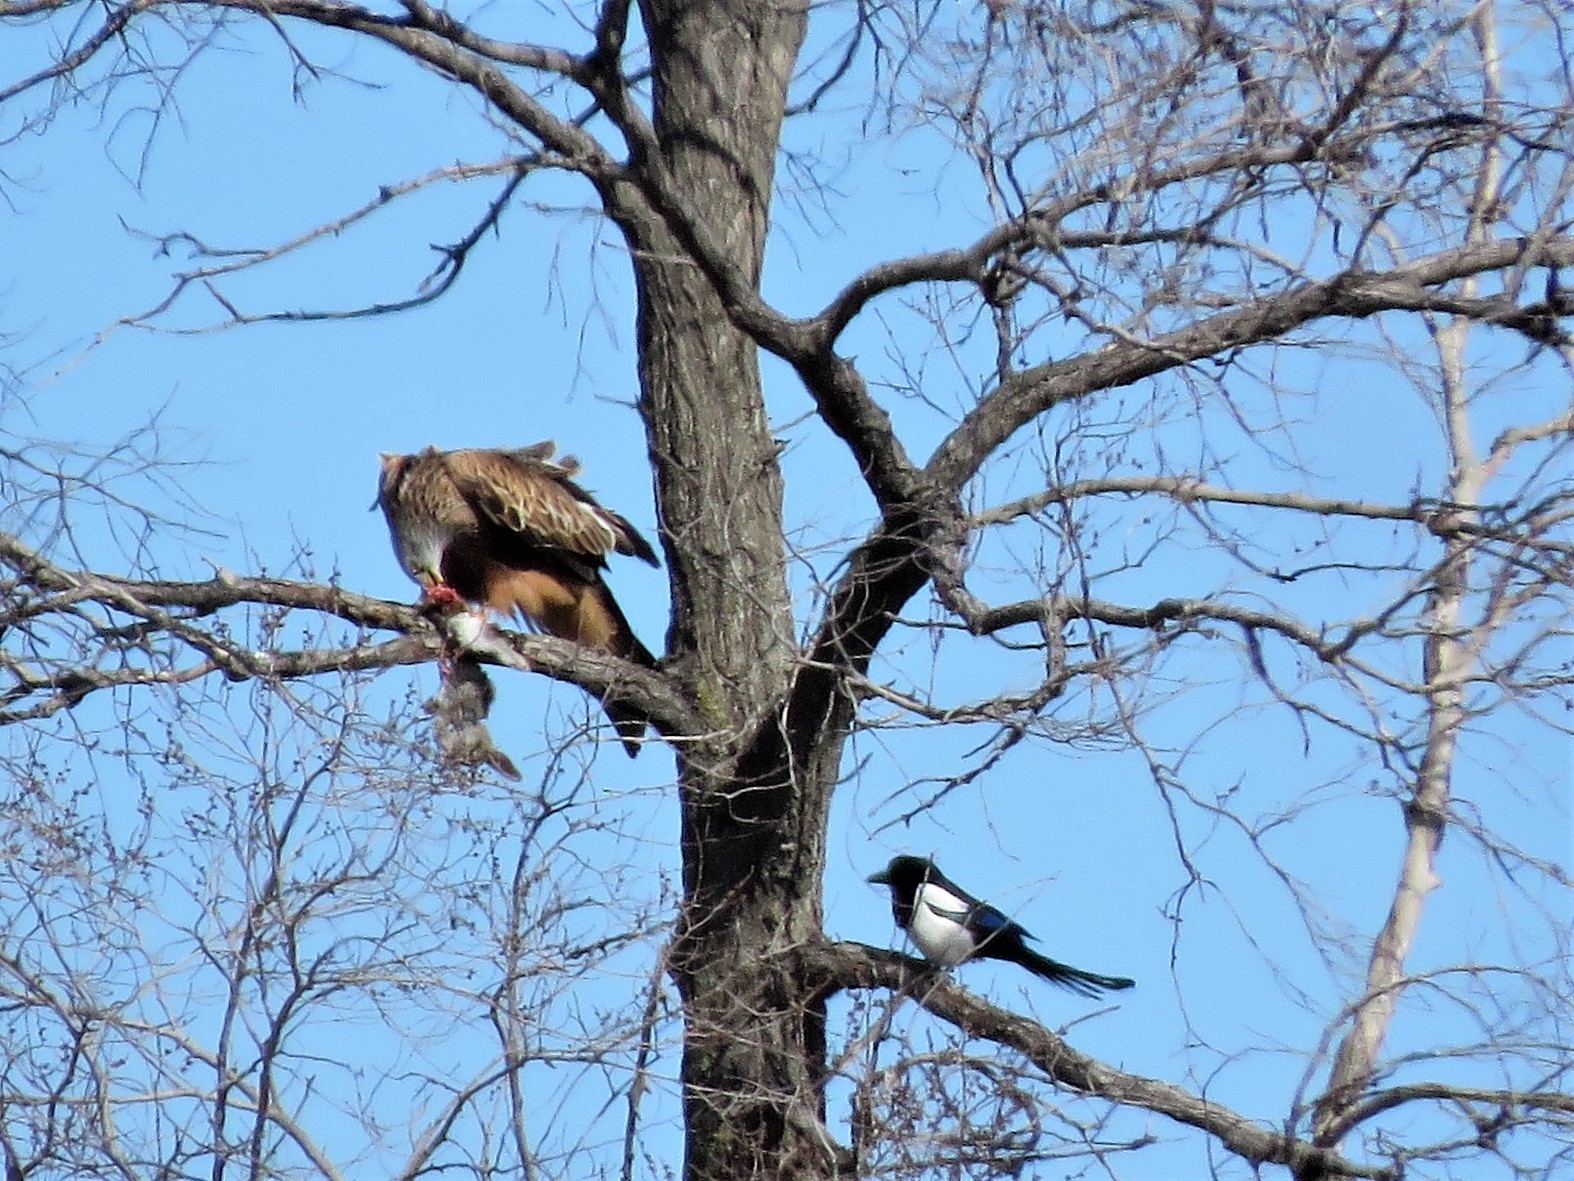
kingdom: Animalia
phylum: Chordata
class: Aves
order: Accipitriformes
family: Accipitridae
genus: Milvus
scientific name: Milvus milvus
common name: Red kite
